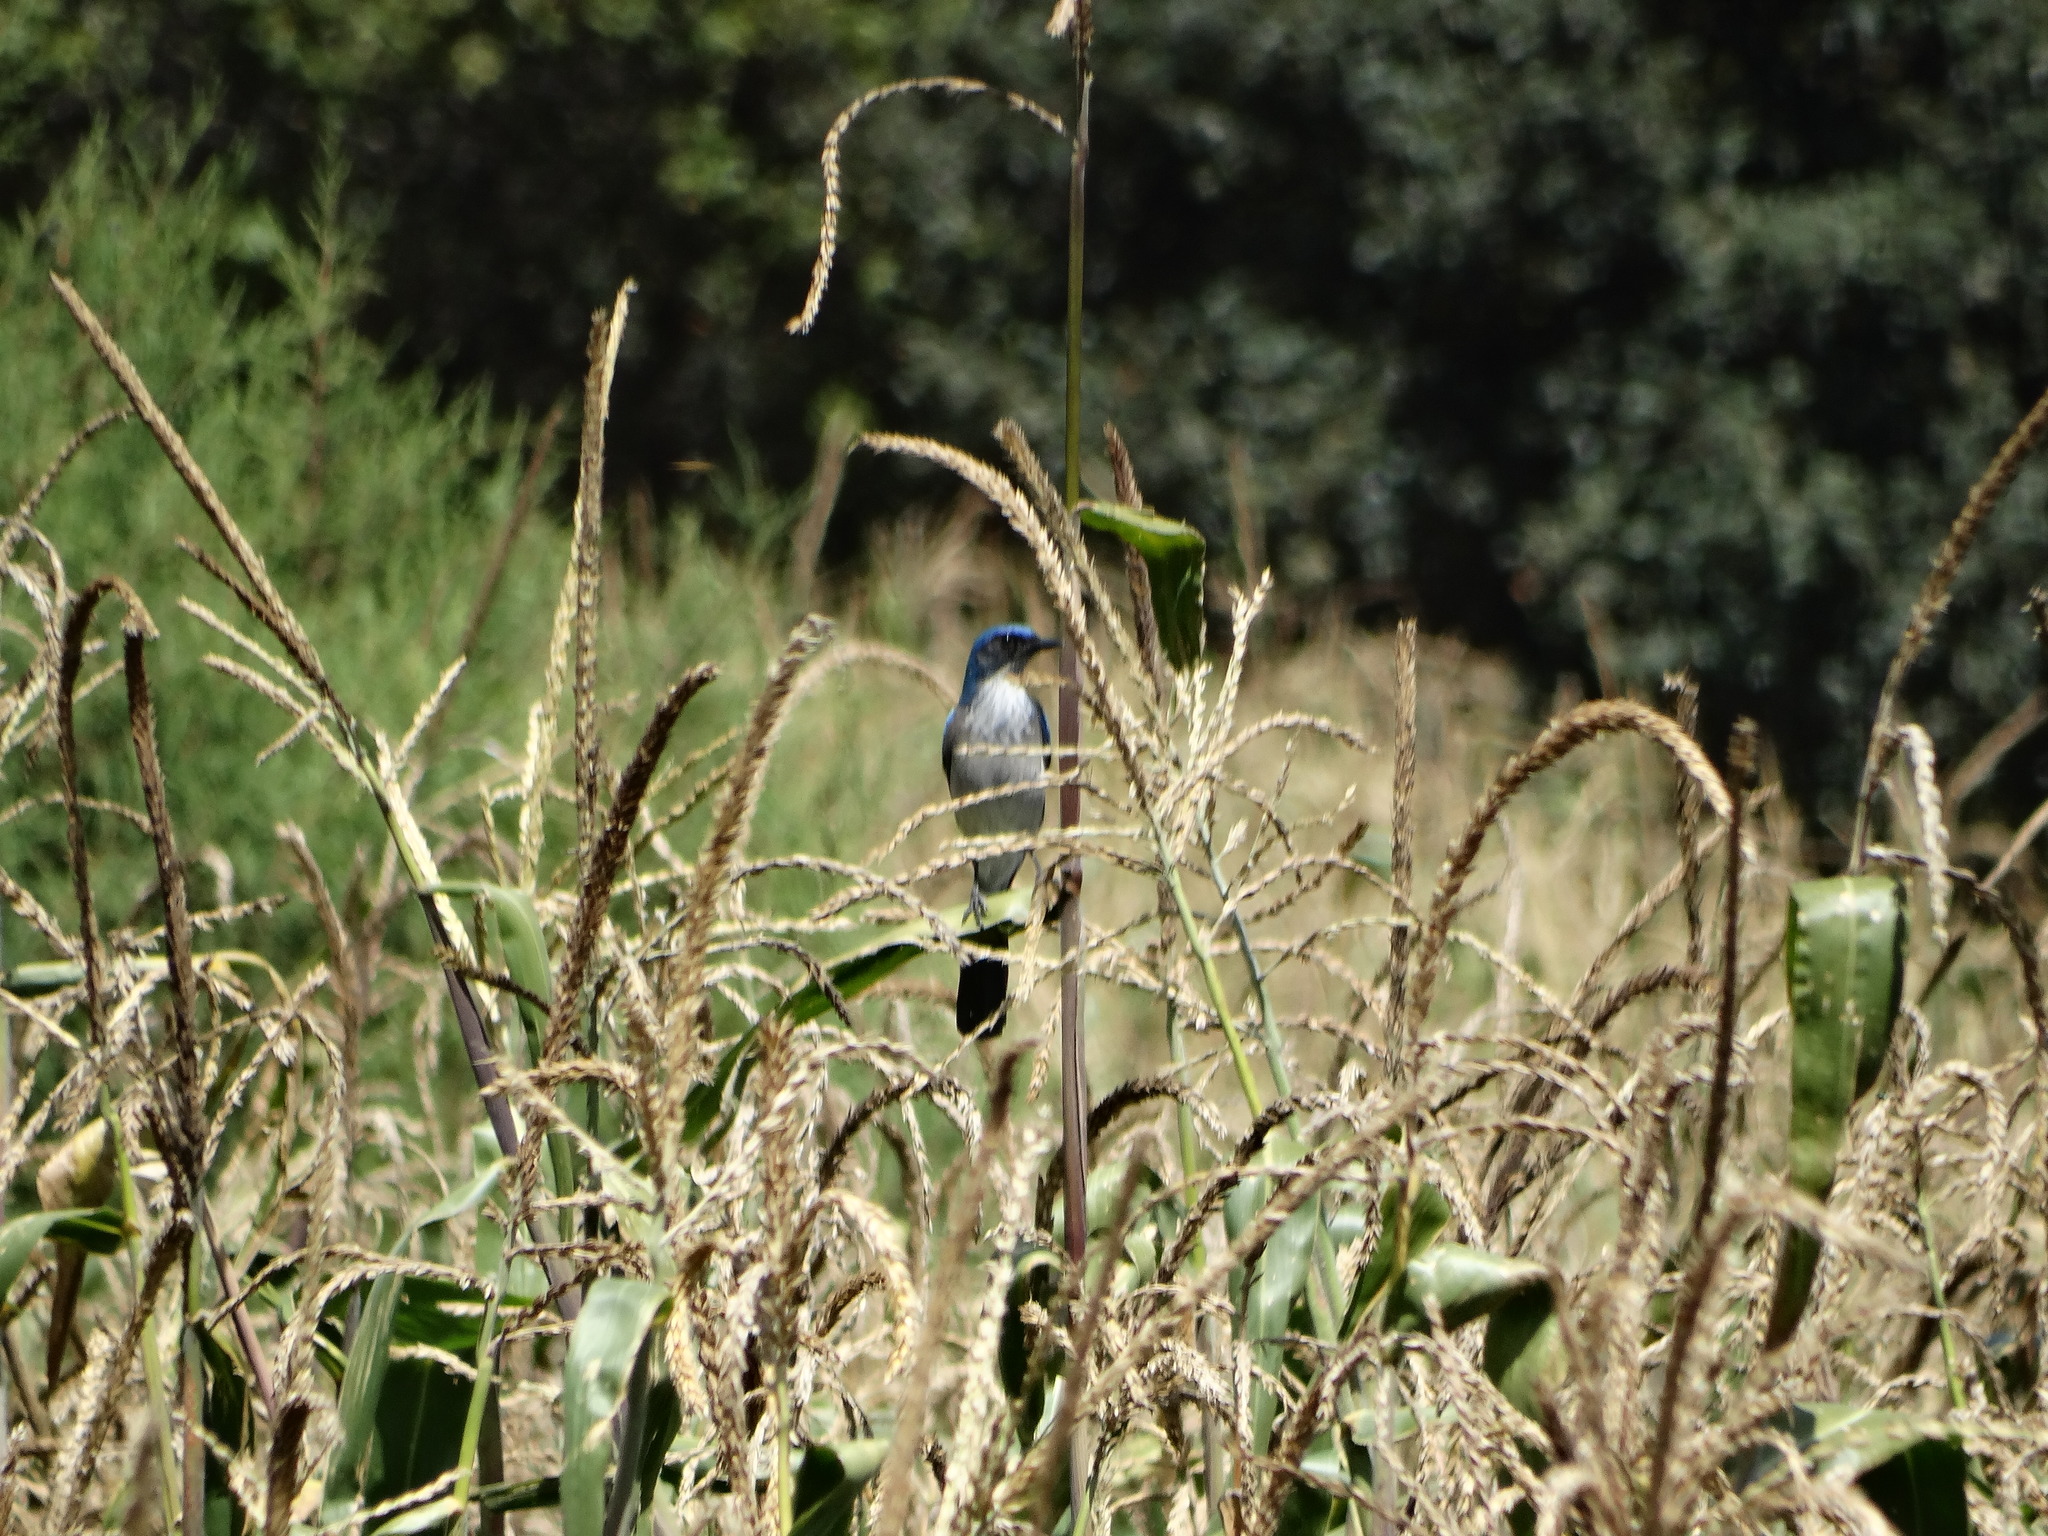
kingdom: Animalia
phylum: Chordata
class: Aves
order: Passeriformes
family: Corvidae
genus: Aphelocoma
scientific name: Aphelocoma woodhouseii
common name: Woodhouse's scrub-jay
